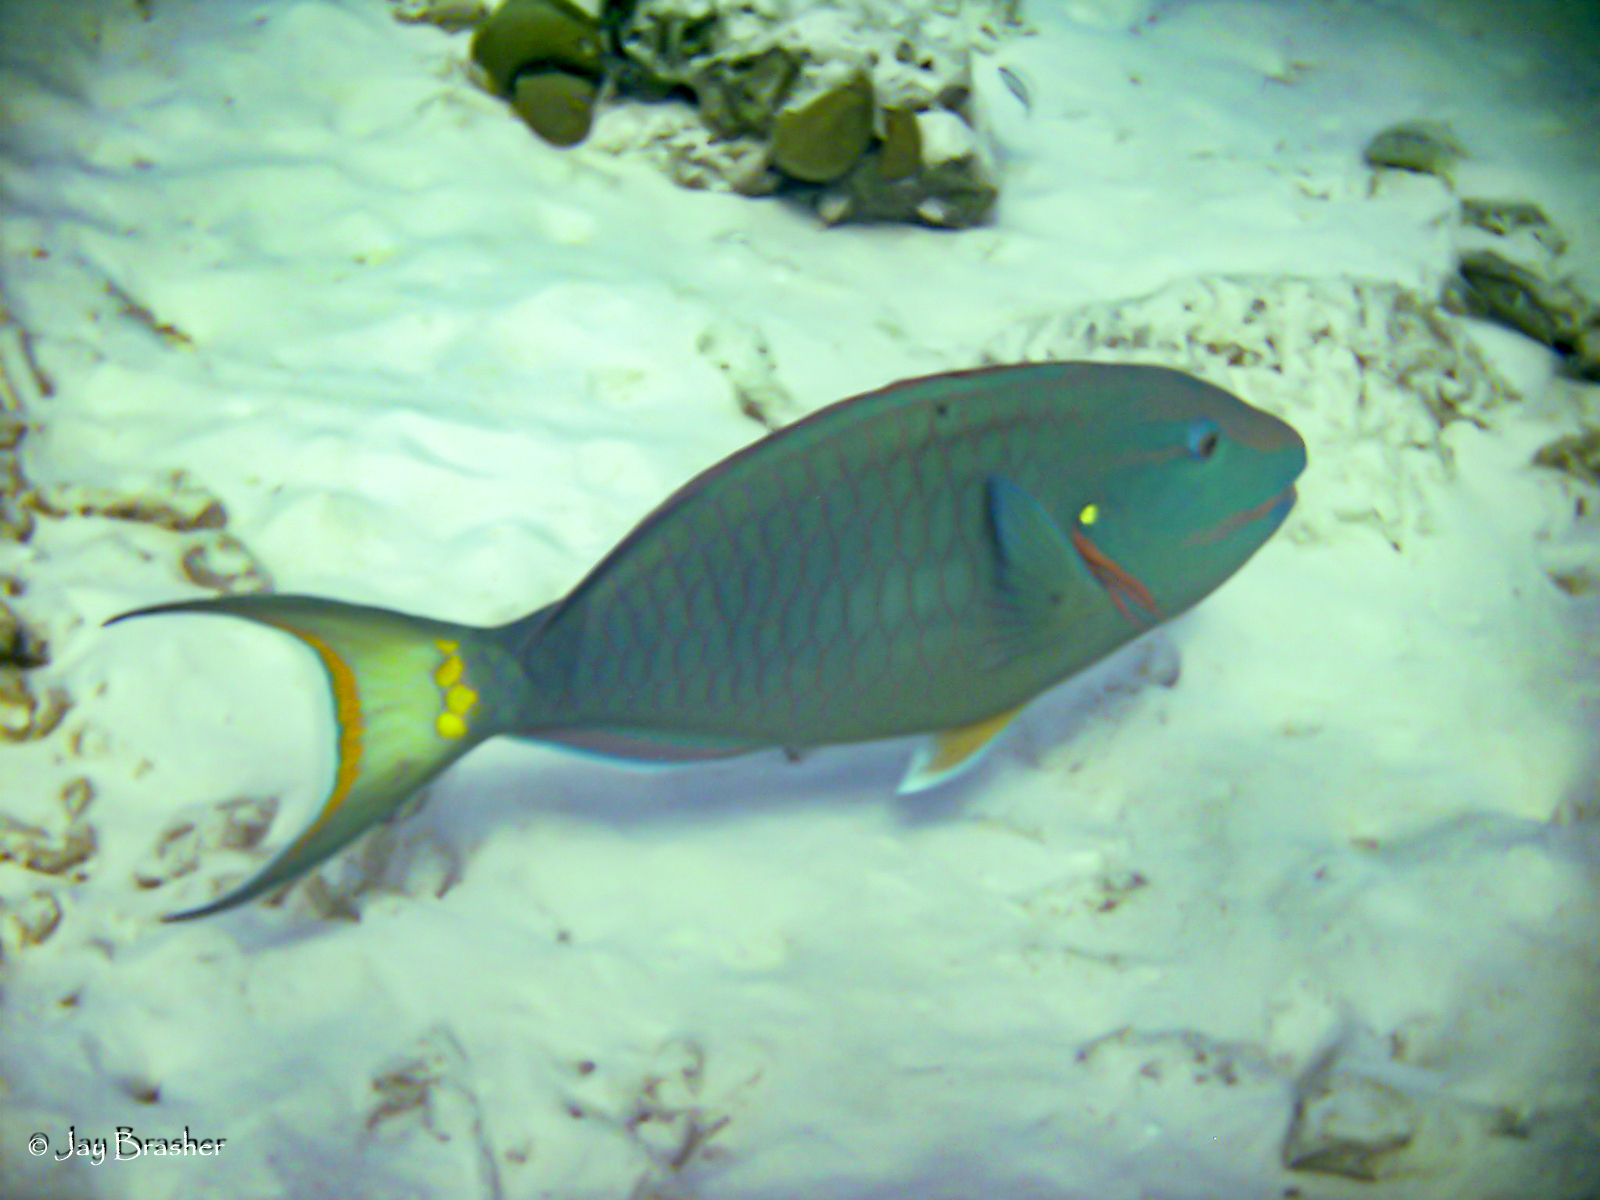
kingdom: Animalia
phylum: Chordata
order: Perciformes
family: Scaridae
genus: Sparisoma
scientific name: Sparisoma viride
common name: Stoplight parrotfish
